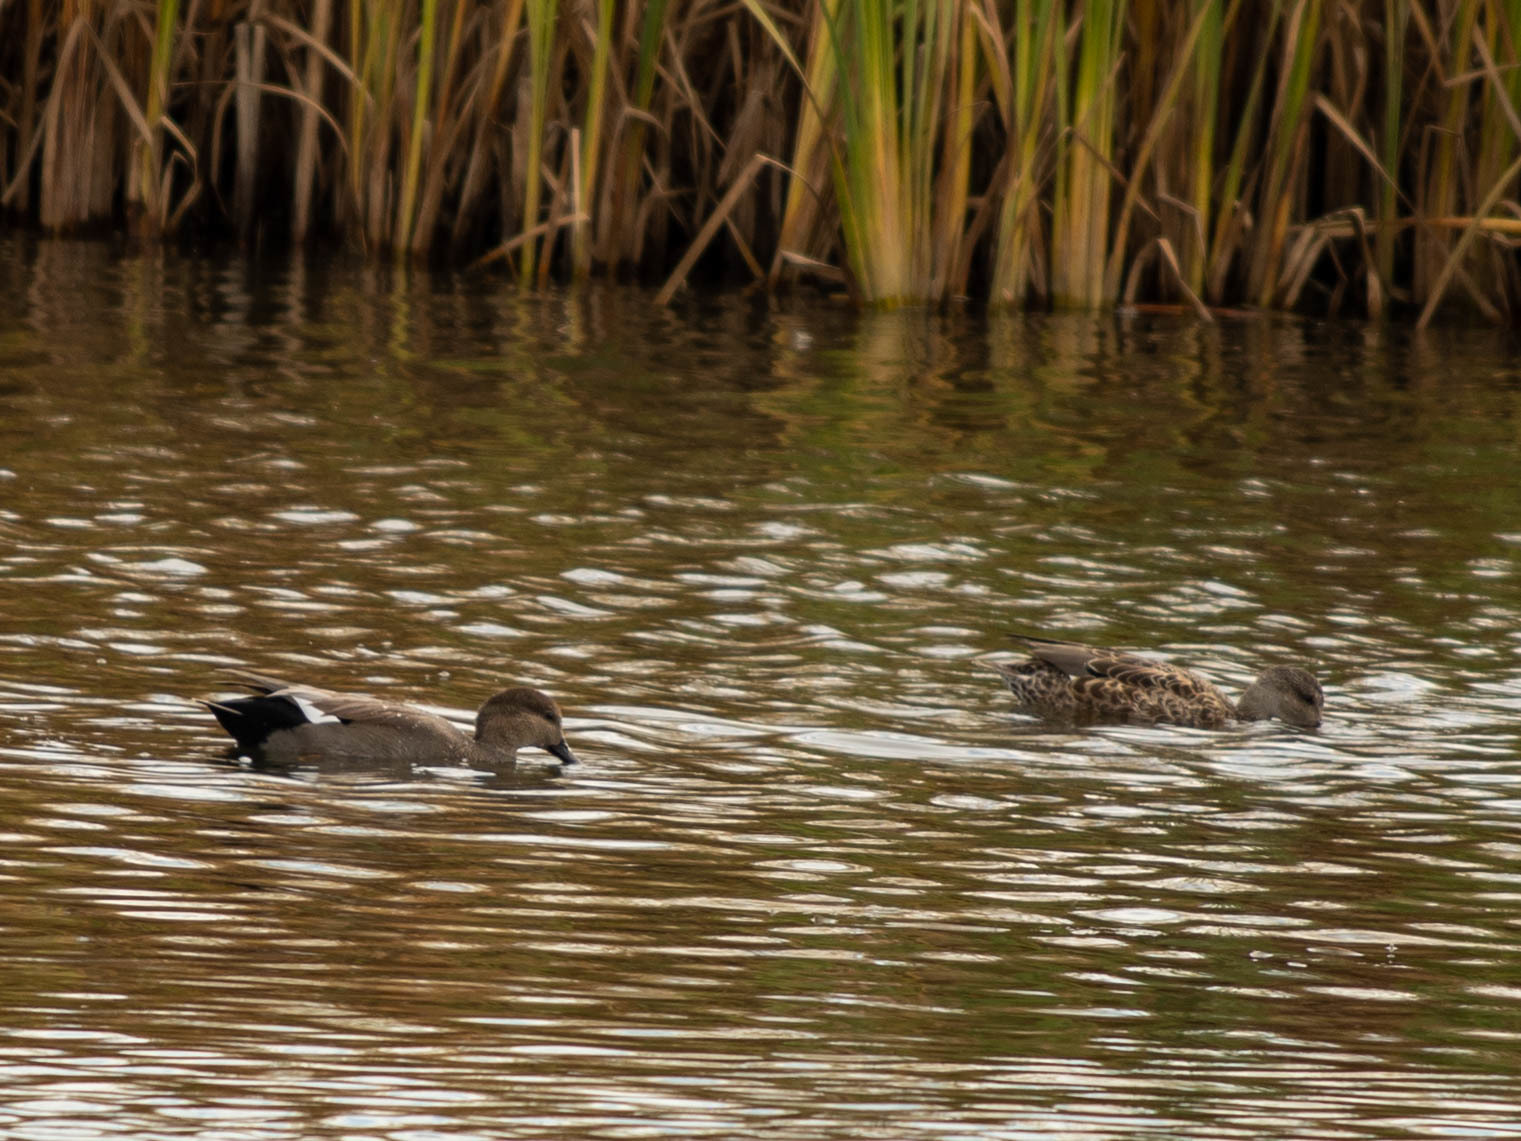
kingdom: Animalia
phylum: Chordata
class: Aves
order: Anseriformes
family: Anatidae
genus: Mareca
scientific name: Mareca strepera
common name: Gadwall
